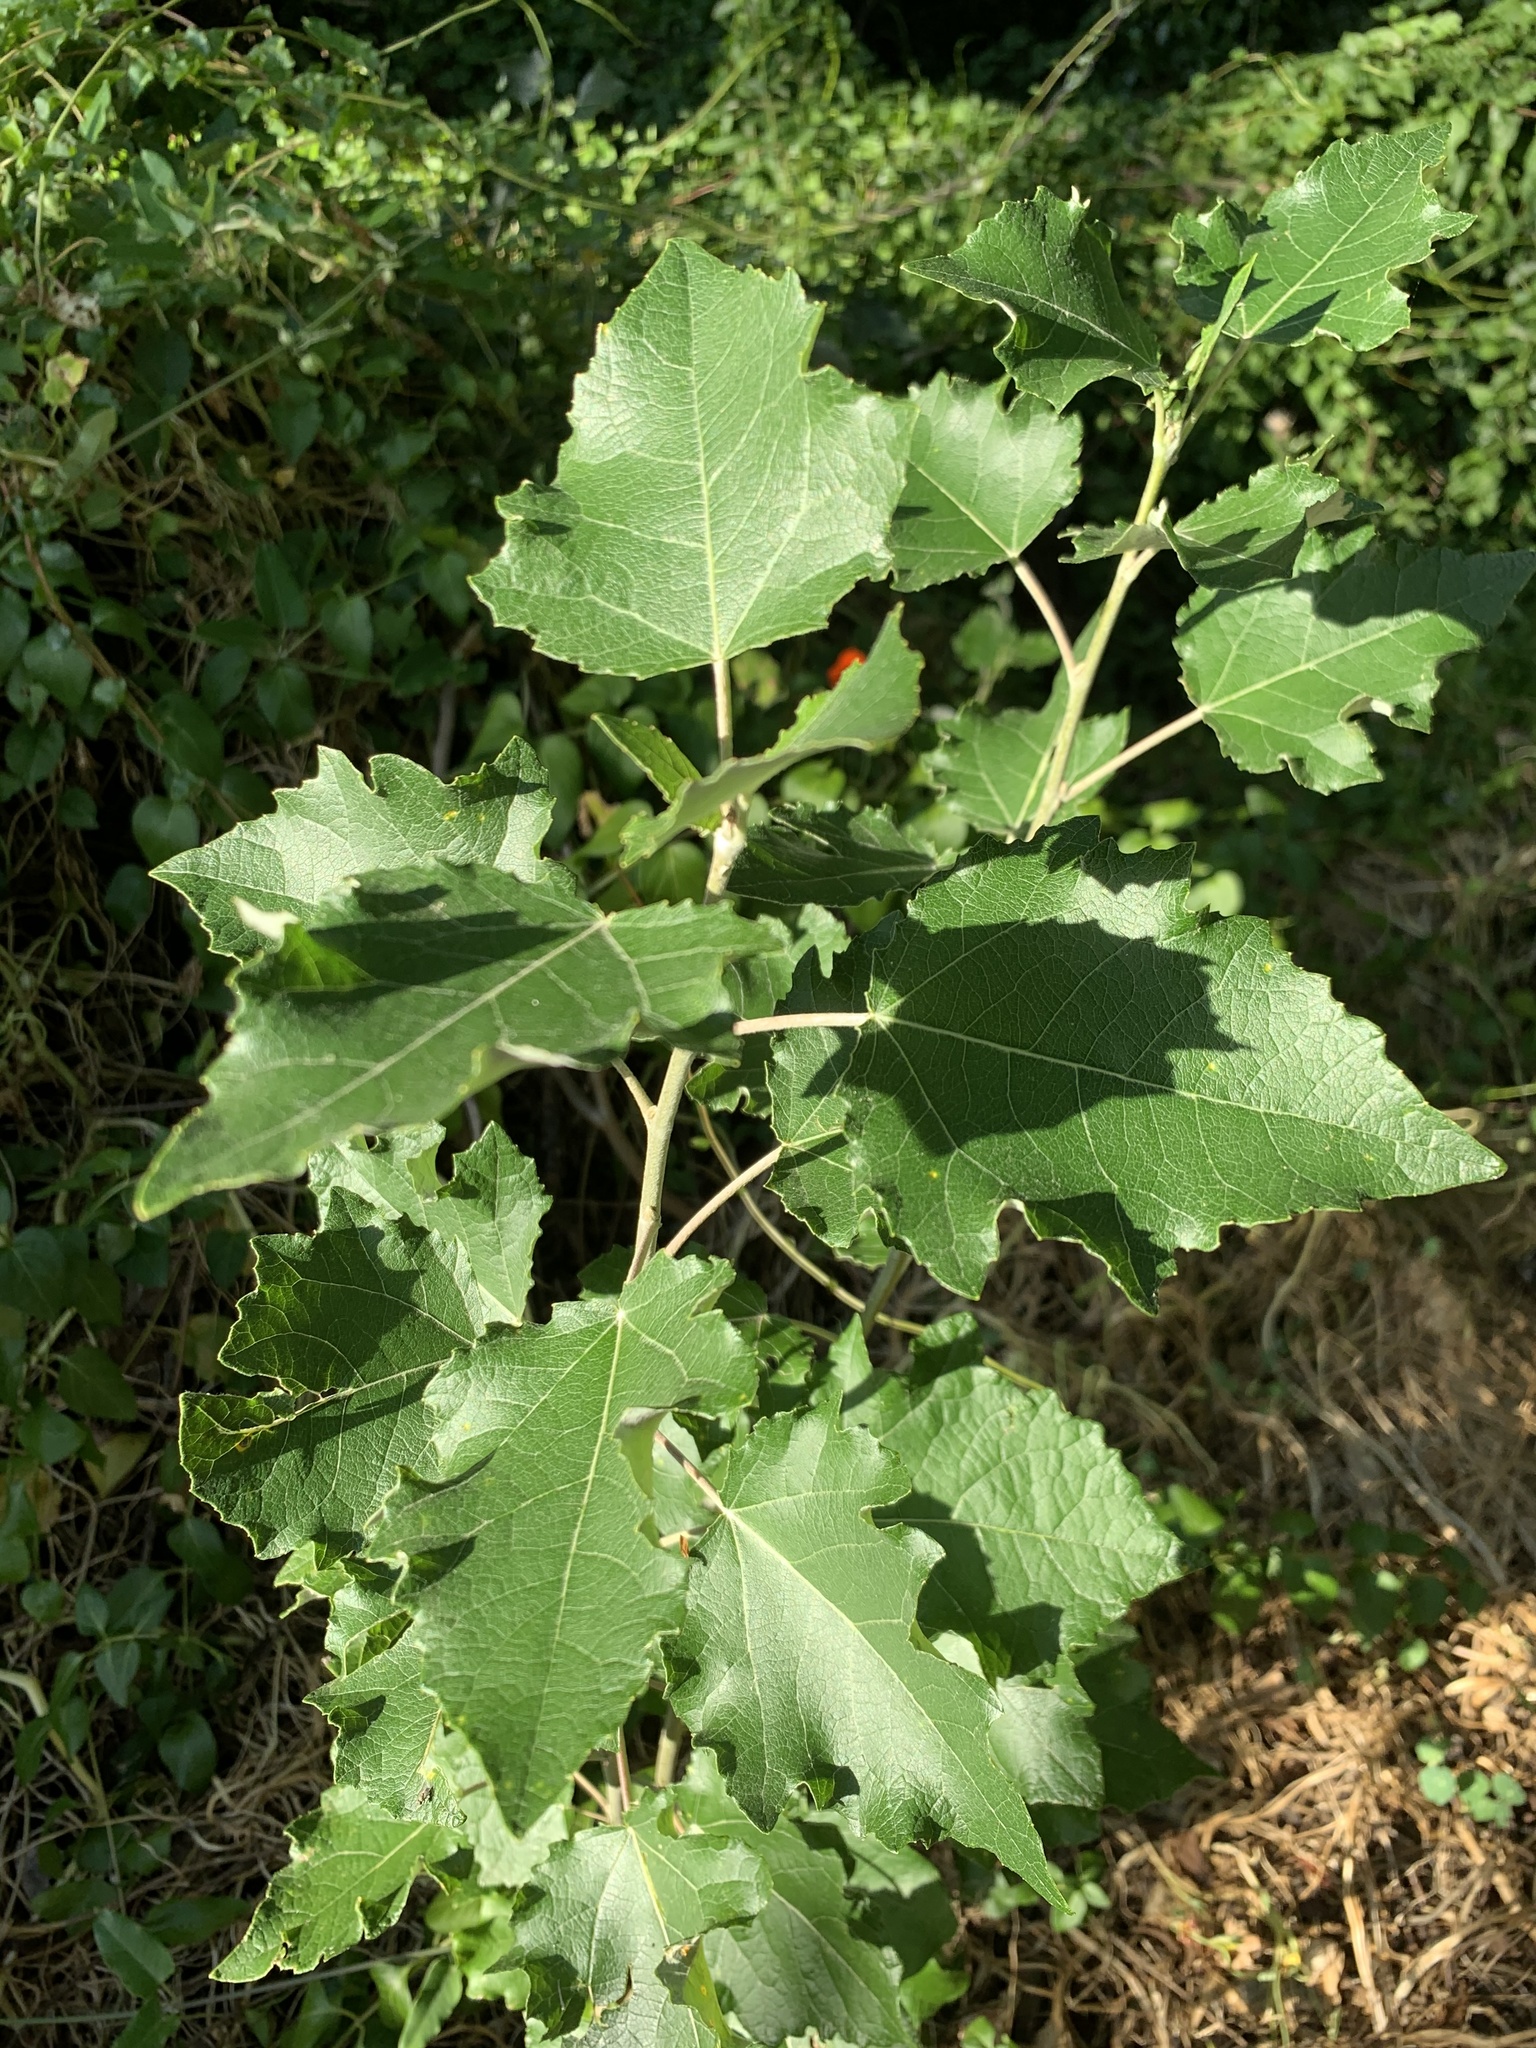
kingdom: Plantae
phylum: Tracheophyta
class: Magnoliopsida
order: Malpighiales
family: Salicaceae
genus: Populus
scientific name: Populus canescens
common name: Gray poplar
